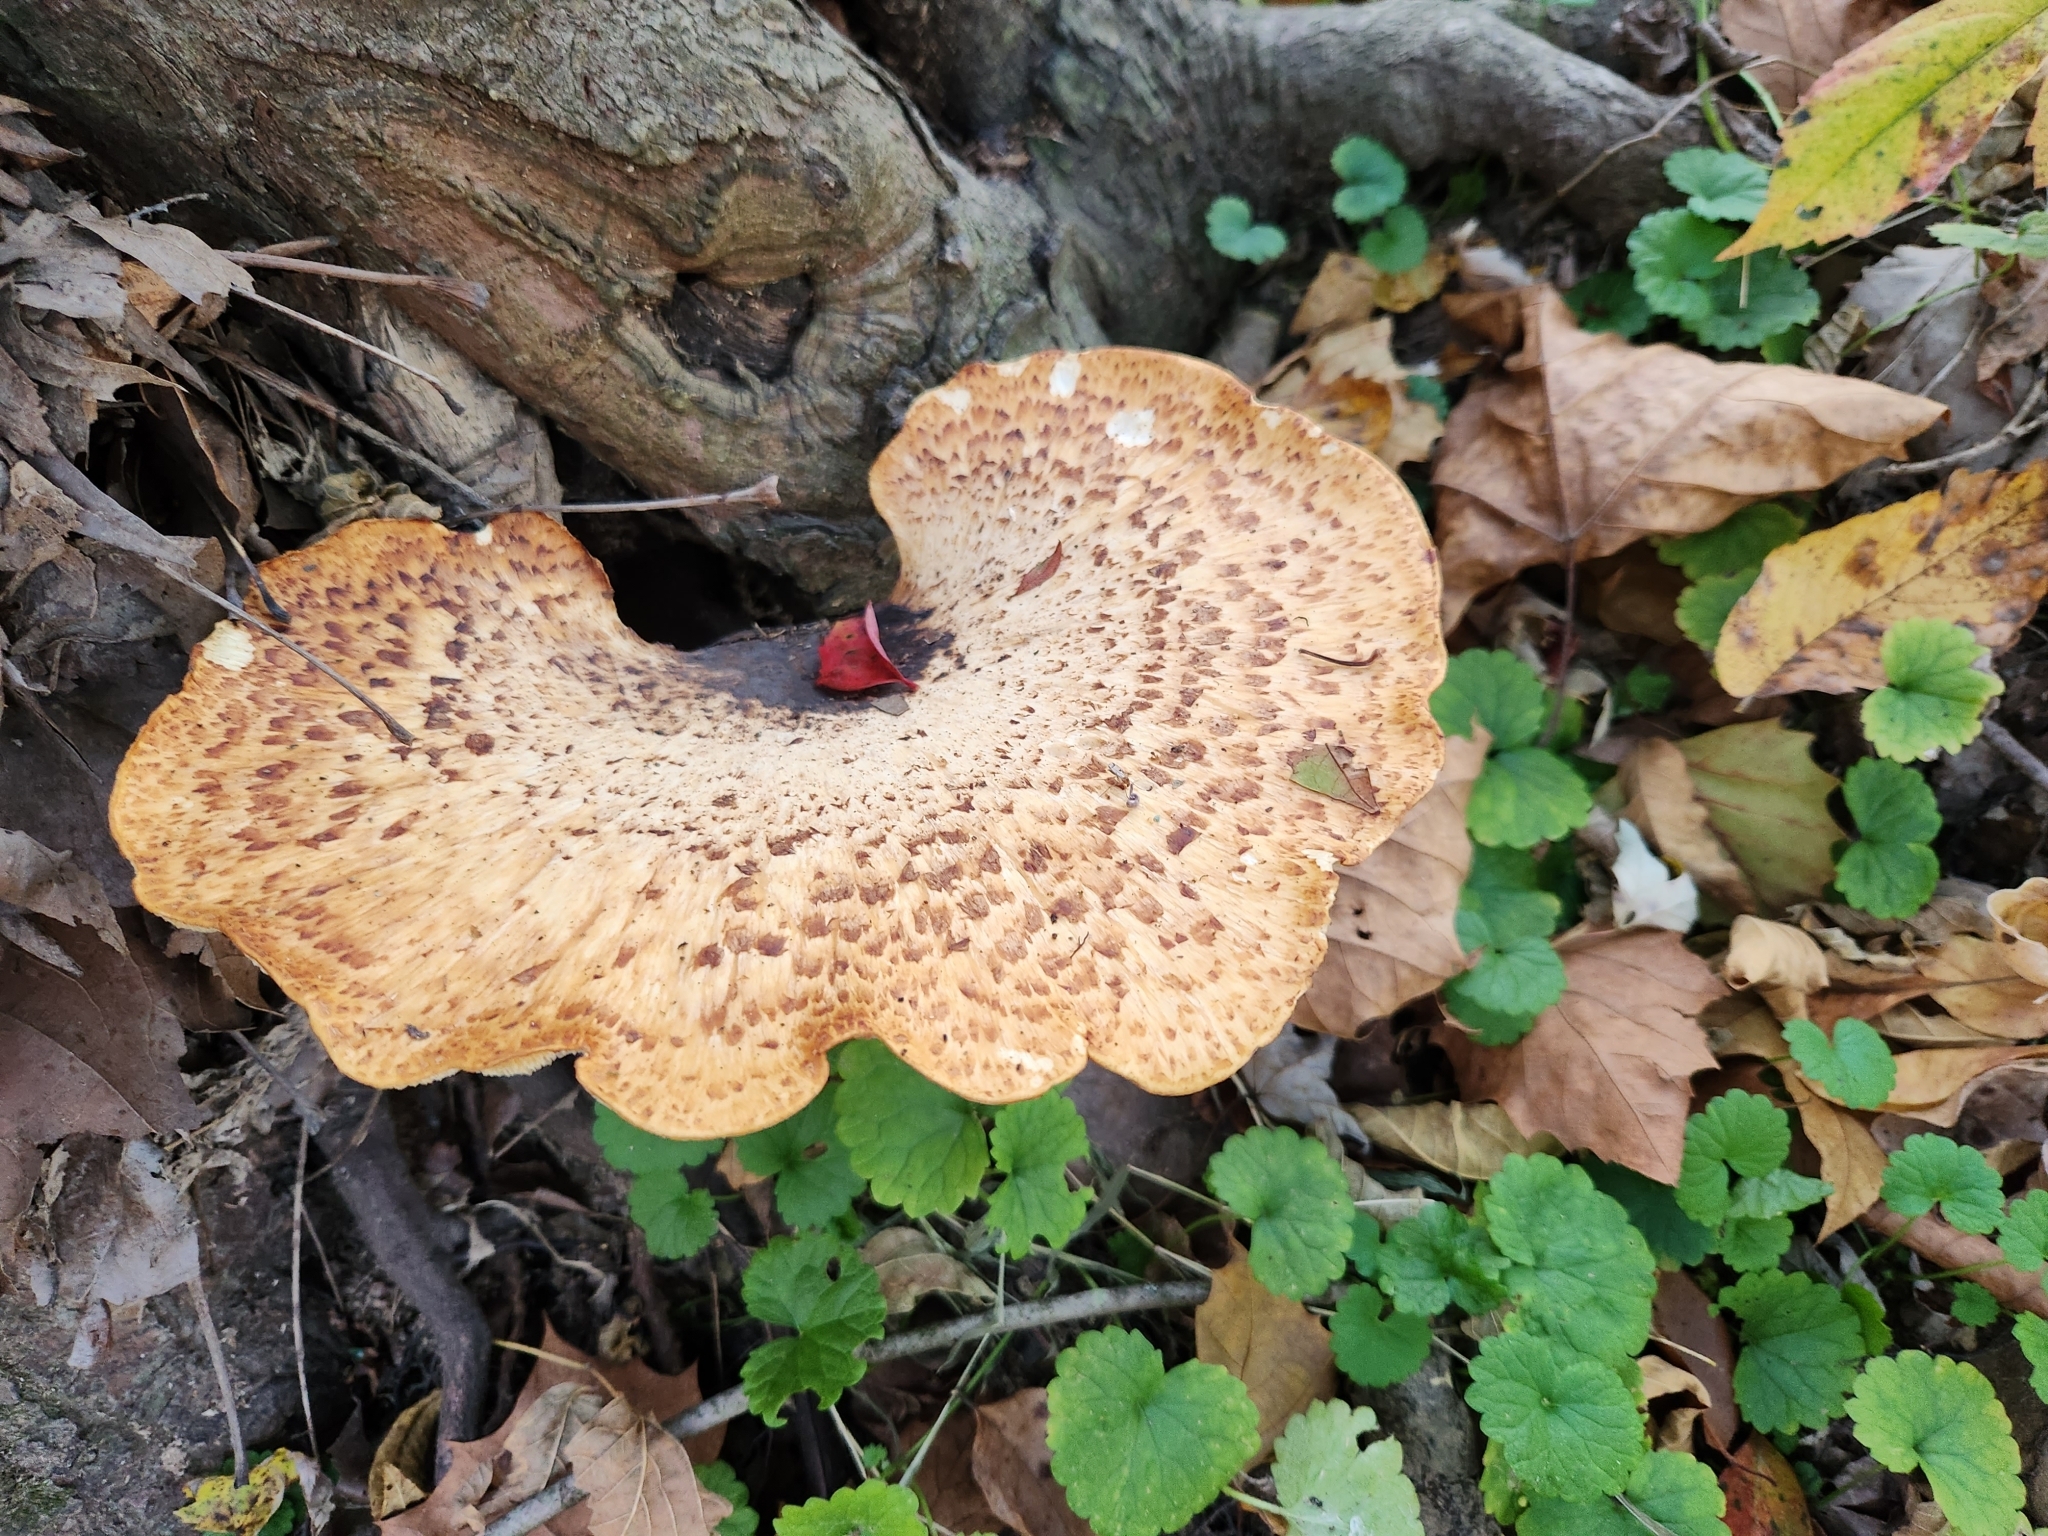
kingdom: Fungi
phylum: Basidiomycota
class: Agaricomycetes
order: Polyporales
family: Polyporaceae
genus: Cerioporus
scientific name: Cerioporus squamosus
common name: Dryad's saddle
